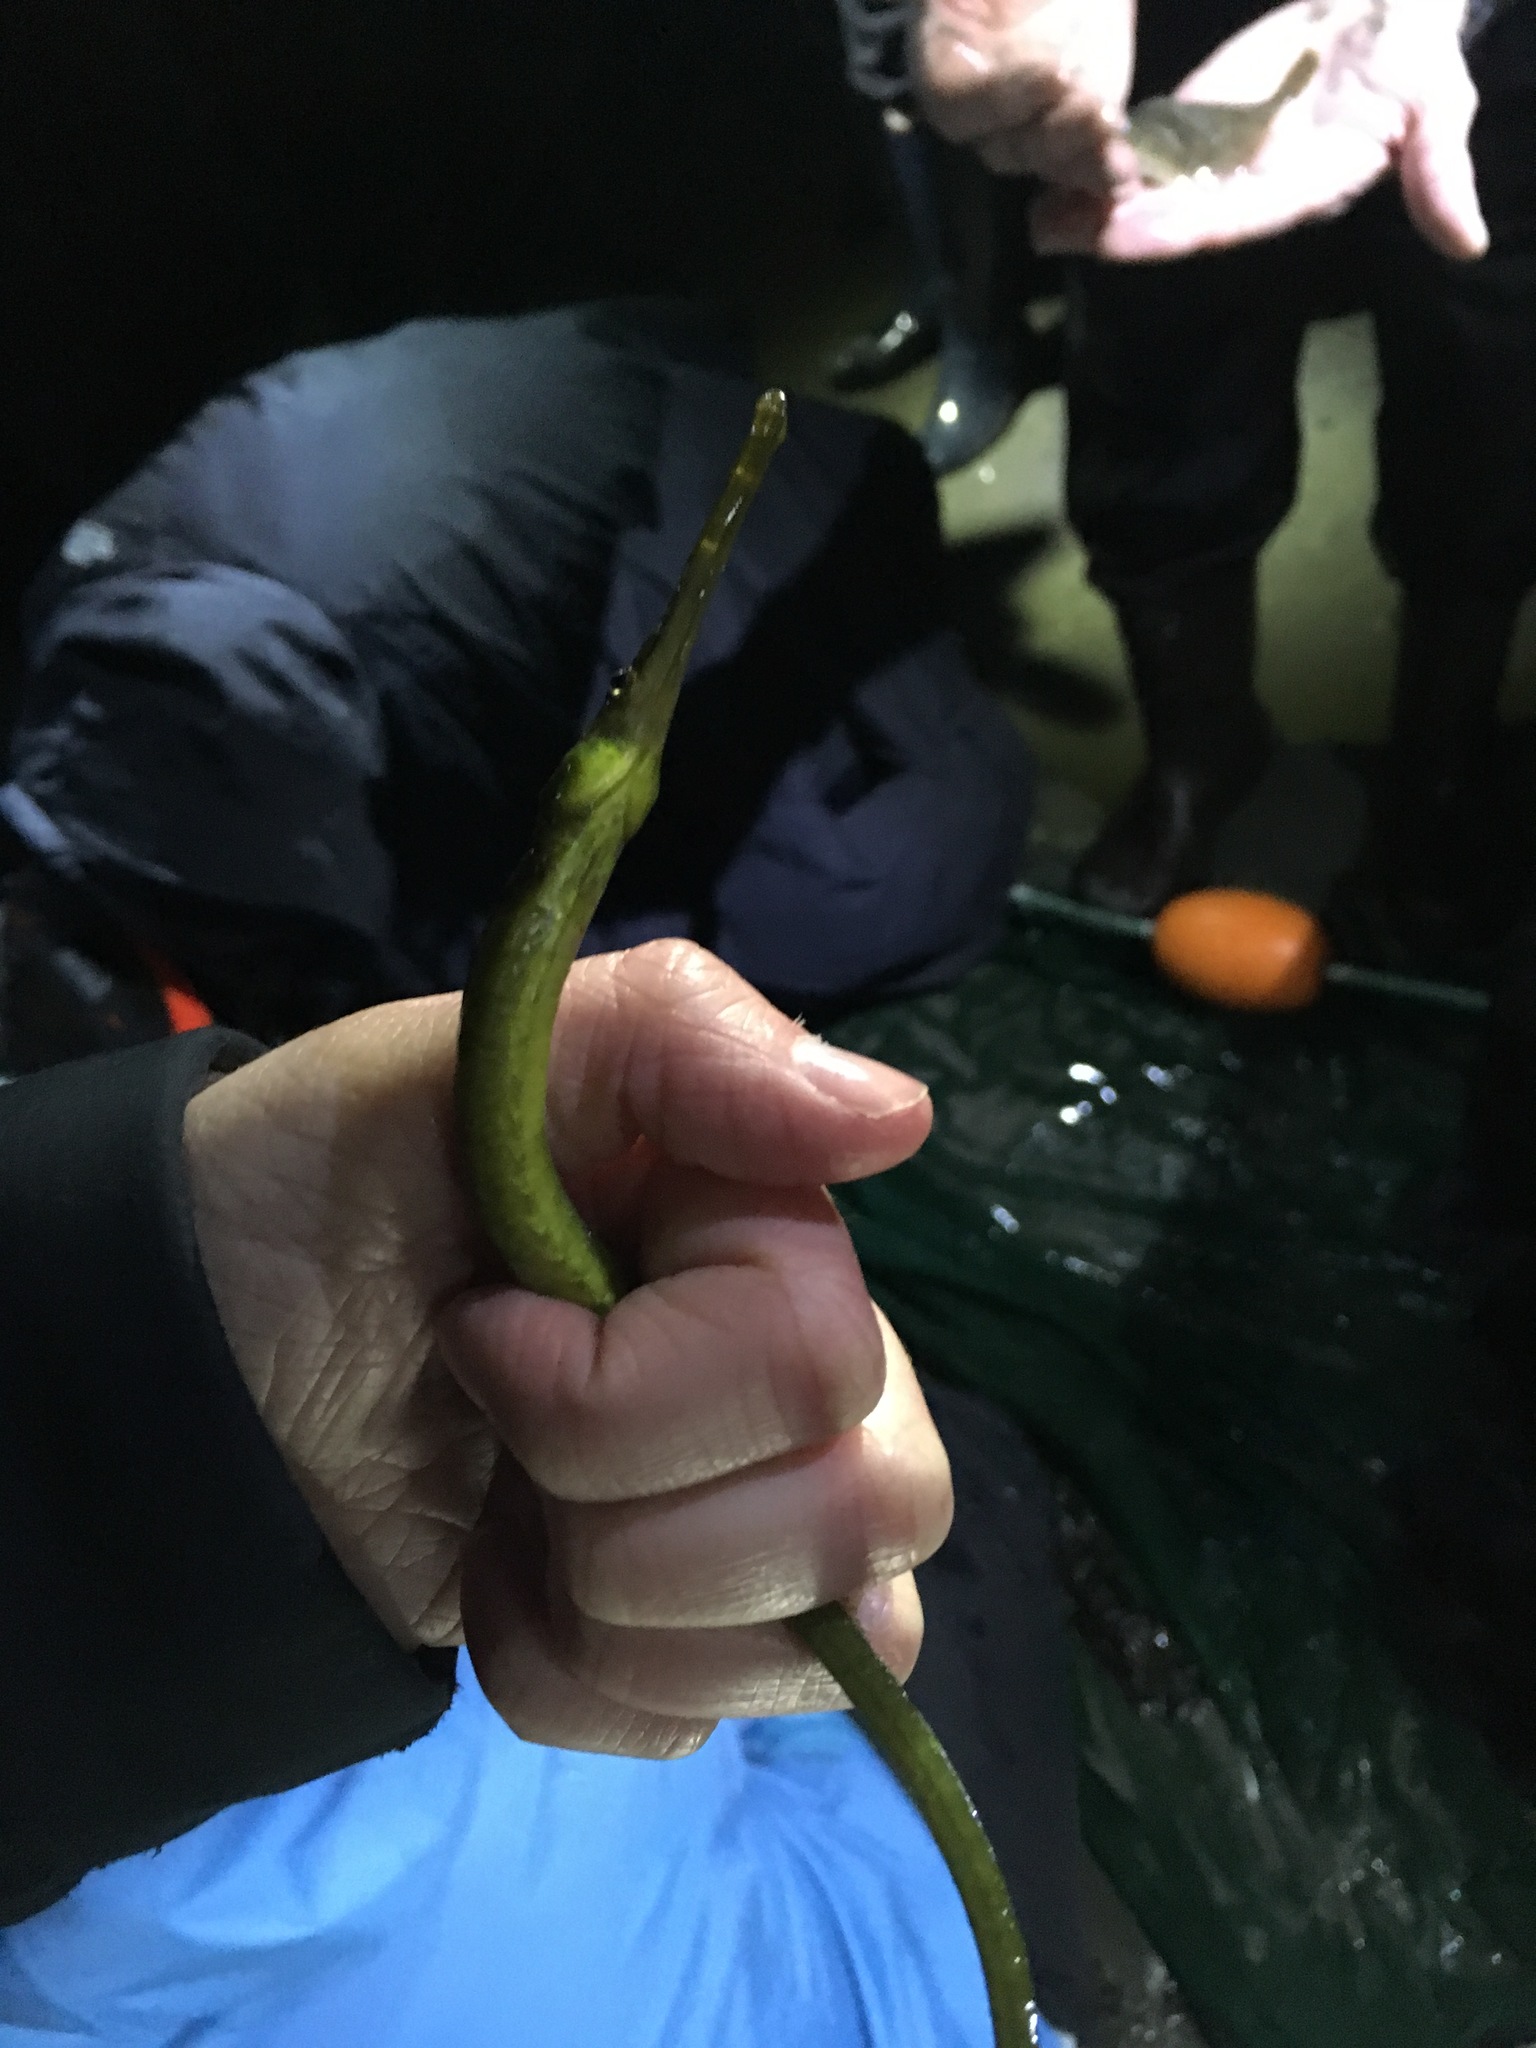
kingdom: Animalia
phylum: Chordata
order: Syngnathiformes
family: Syngnathidae
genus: Syngnathus
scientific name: Syngnathus californiensis
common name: Great pipefish
